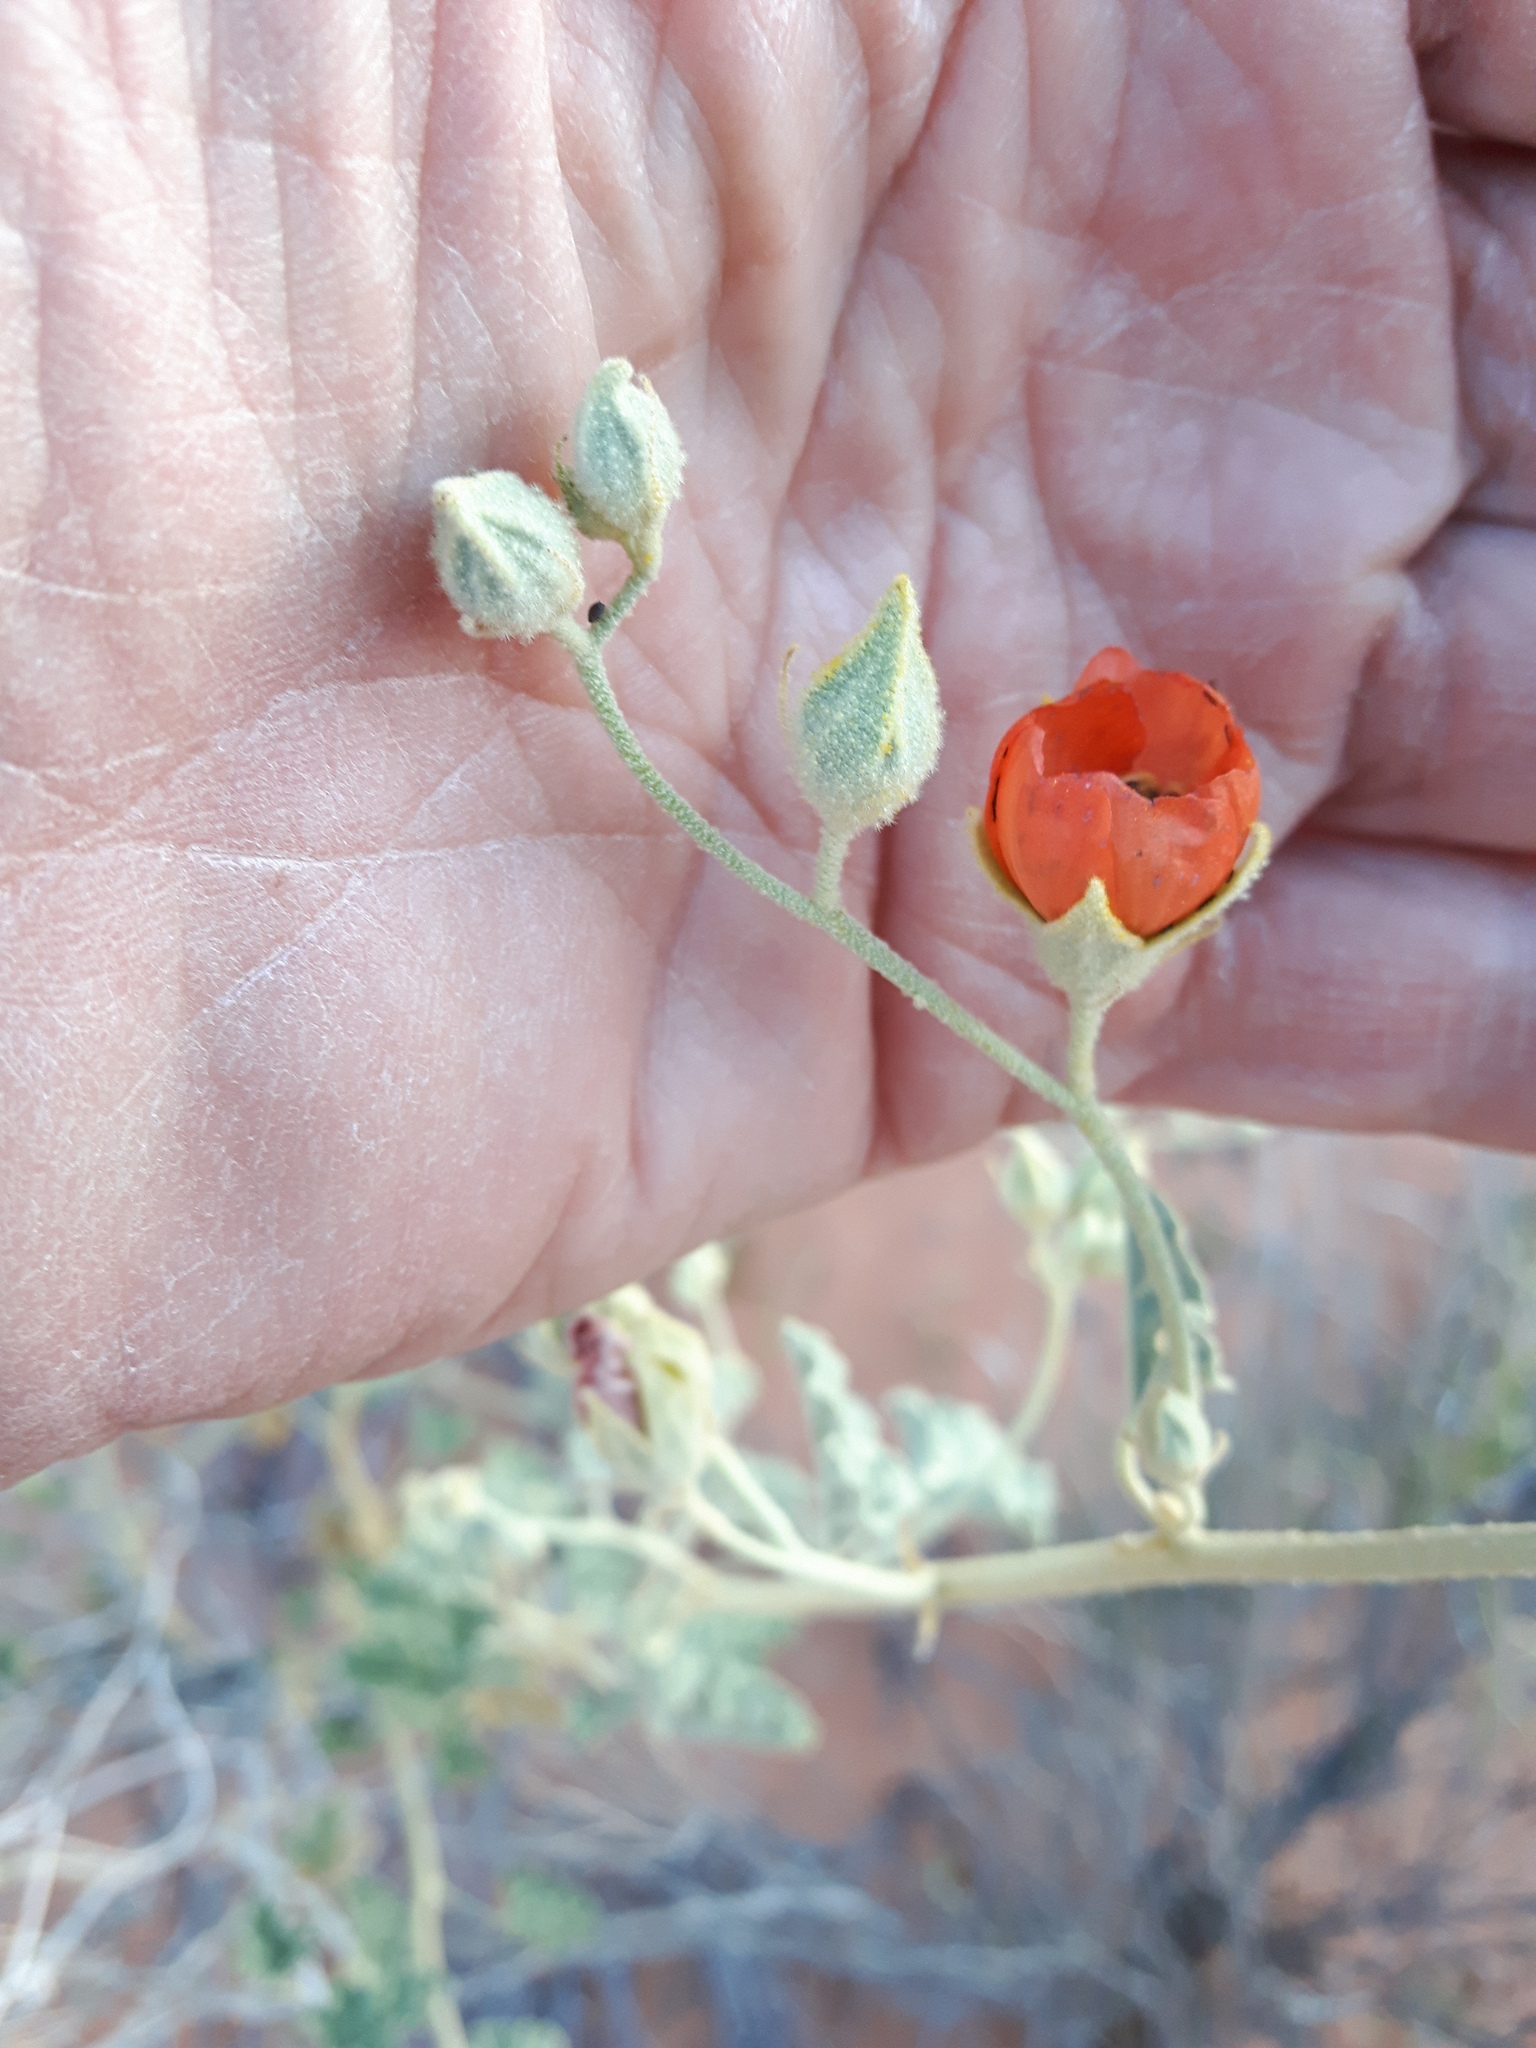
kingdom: Plantae
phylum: Tracheophyta
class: Magnoliopsida
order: Malvales
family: Malvaceae
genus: Sphaeralcea
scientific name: Sphaeralcea ambigua
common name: Apricot globe-mallow
